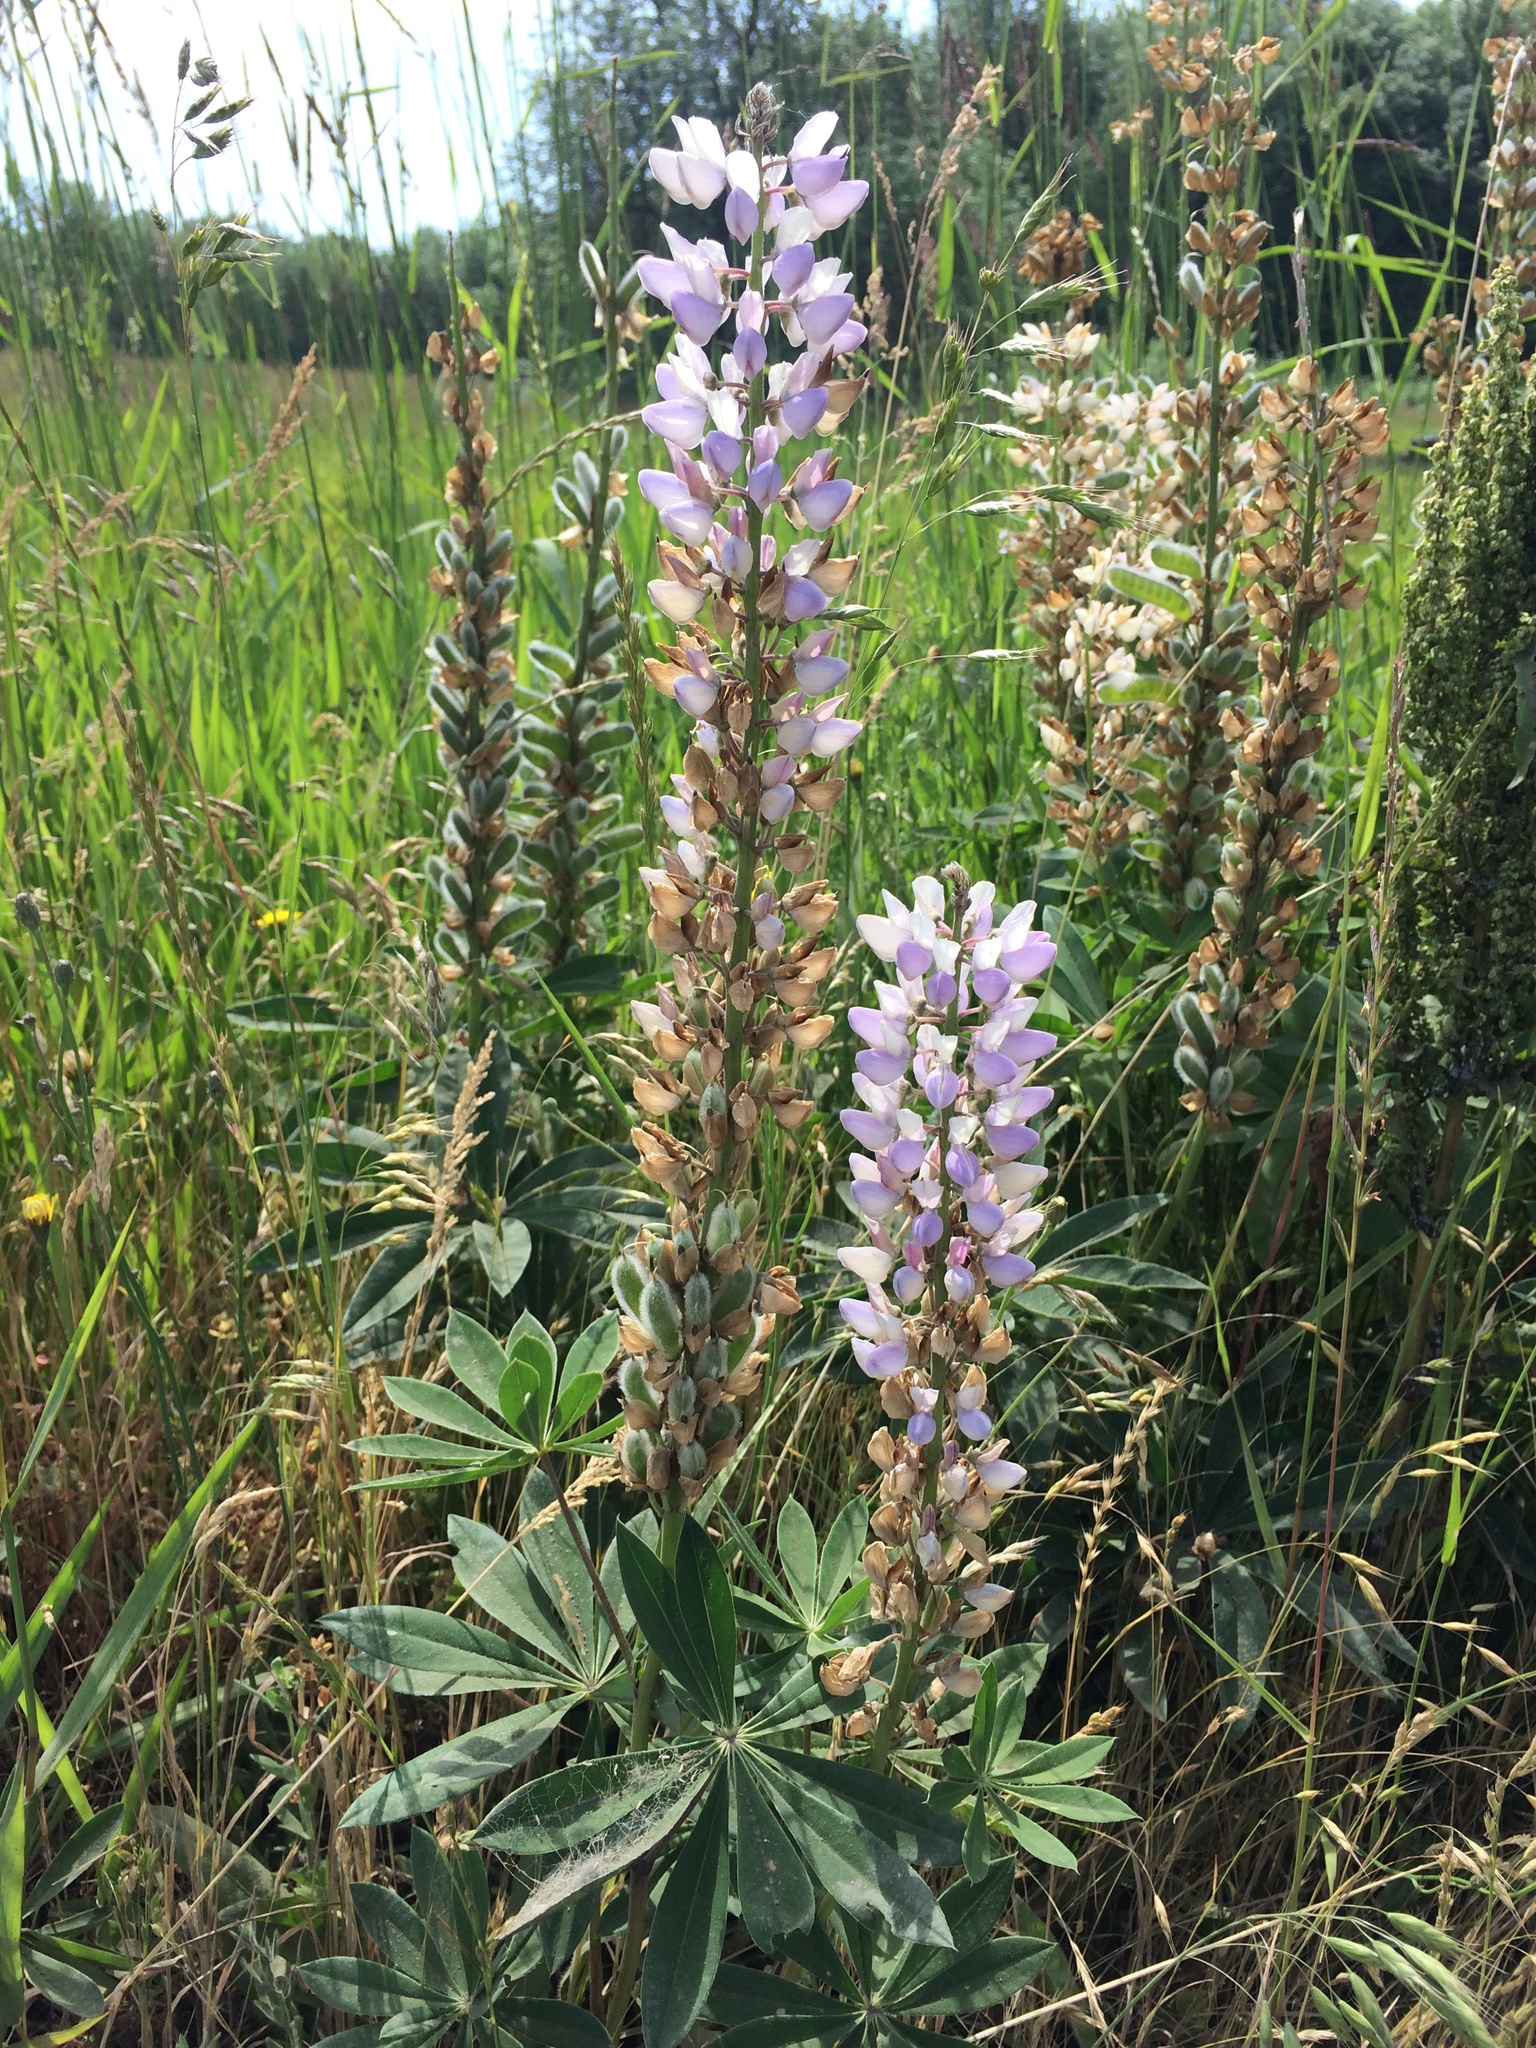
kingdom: Plantae
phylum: Tracheophyta
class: Magnoliopsida
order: Fabales
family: Fabaceae
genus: Lupinus
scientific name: Lupinus polyphyllus
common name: Garden lupin
